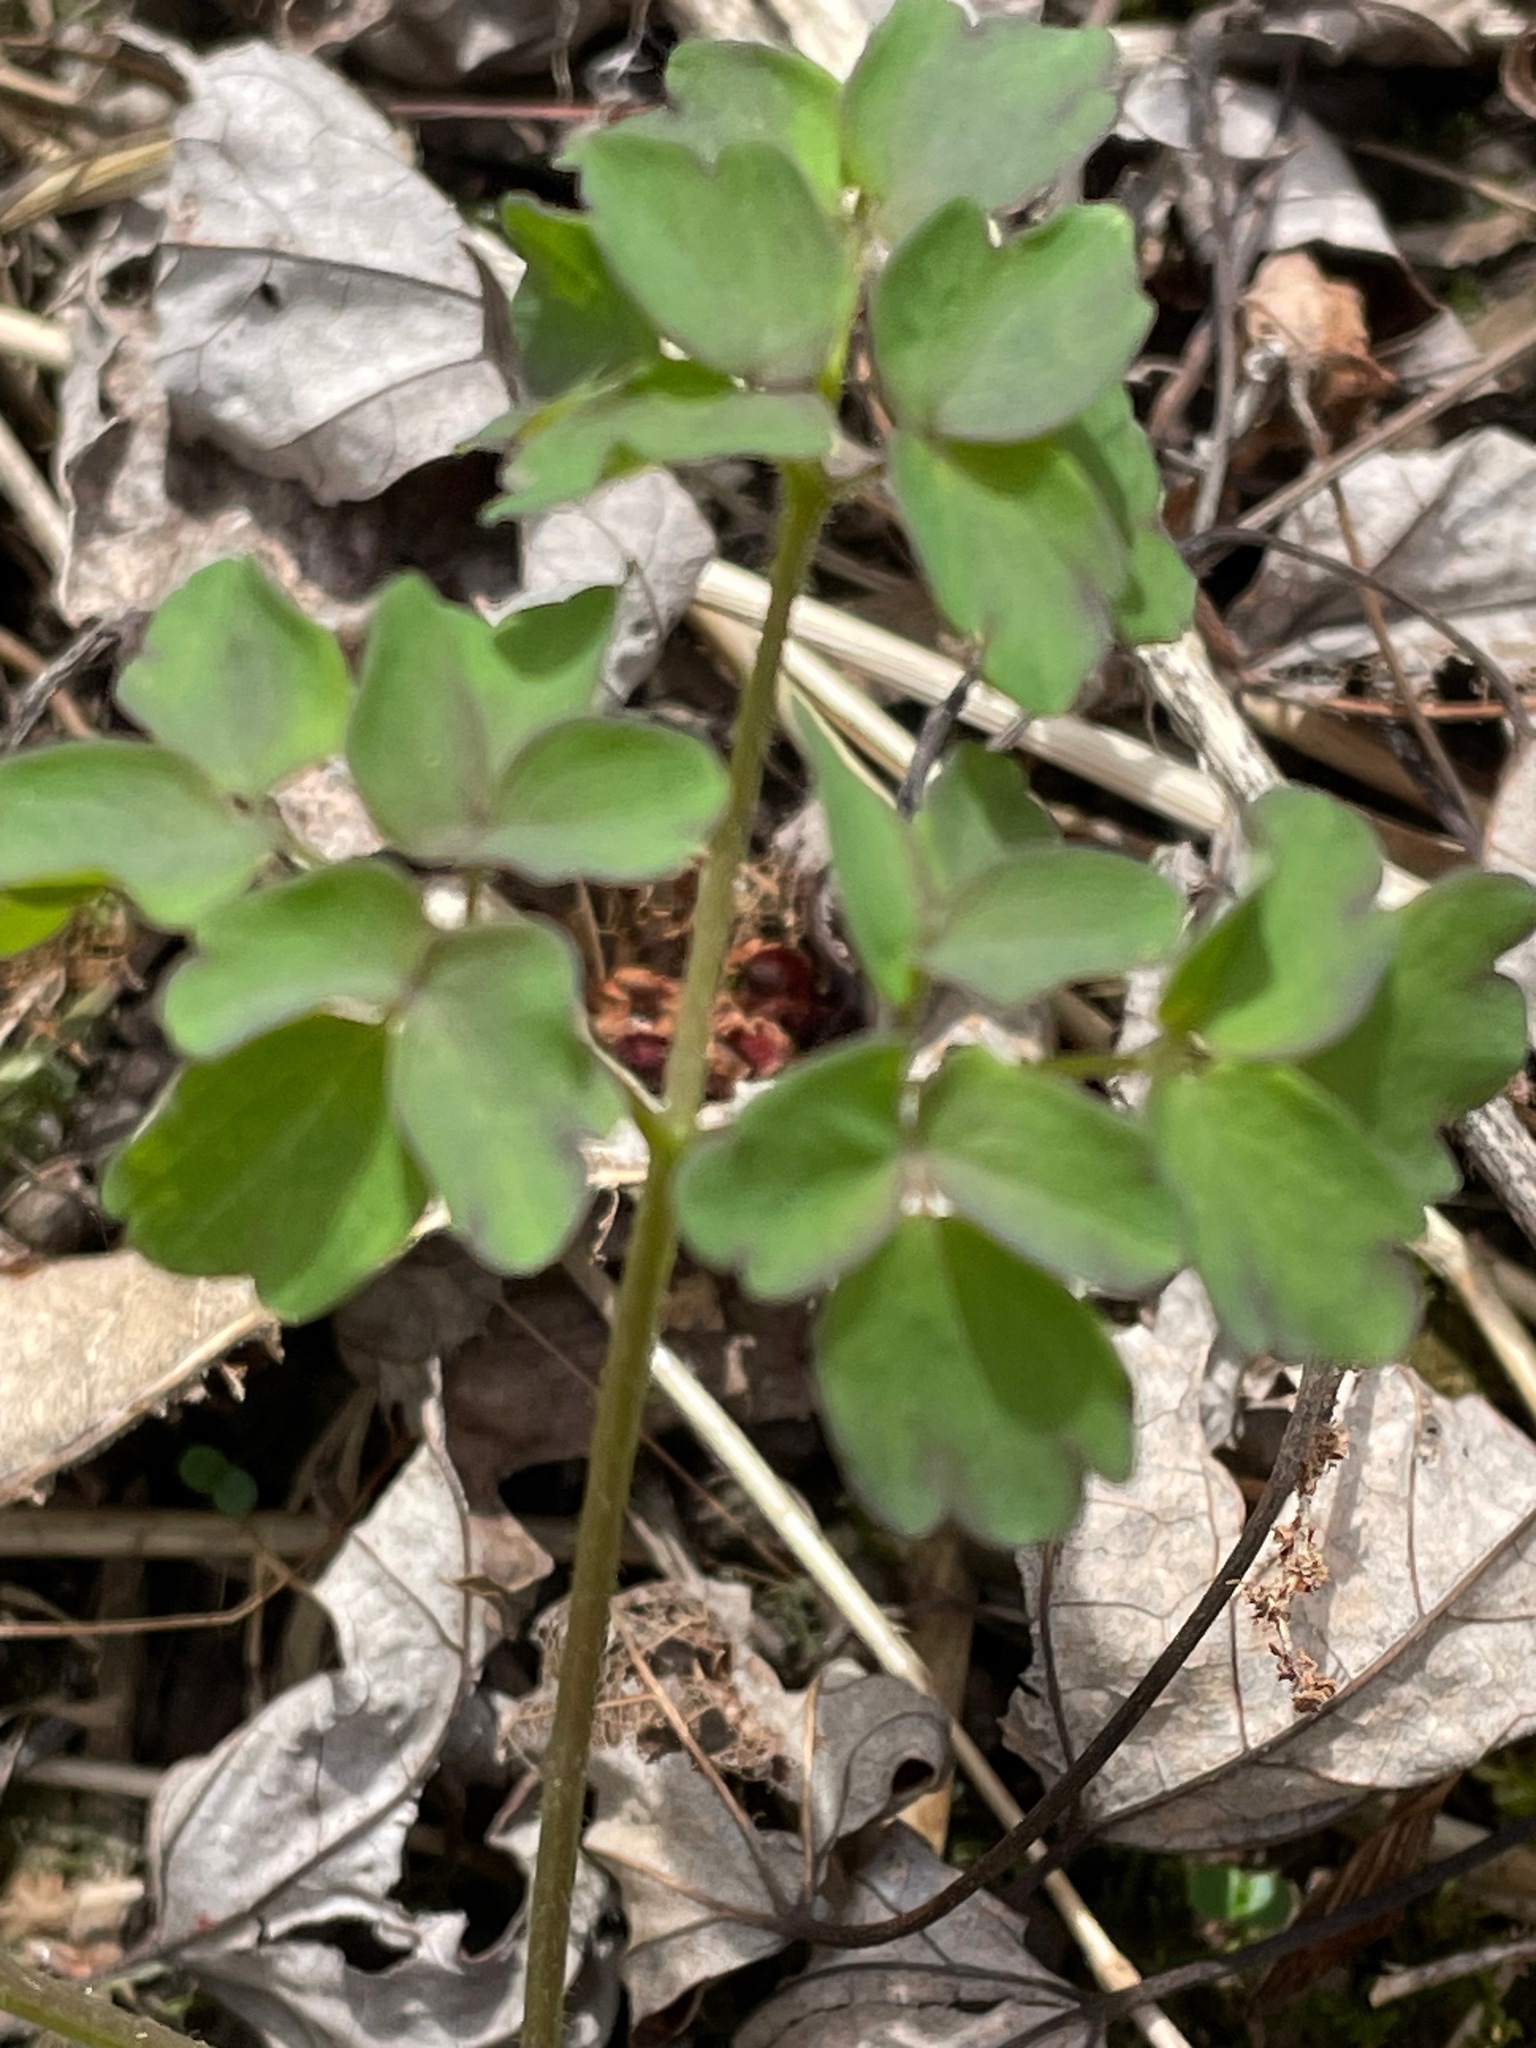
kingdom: Plantae
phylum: Tracheophyta
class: Magnoliopsida
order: Ranunculales
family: Ranunculaceae
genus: Thalictrum
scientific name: Thalictrum pubescens
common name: King-of-the-meadow
